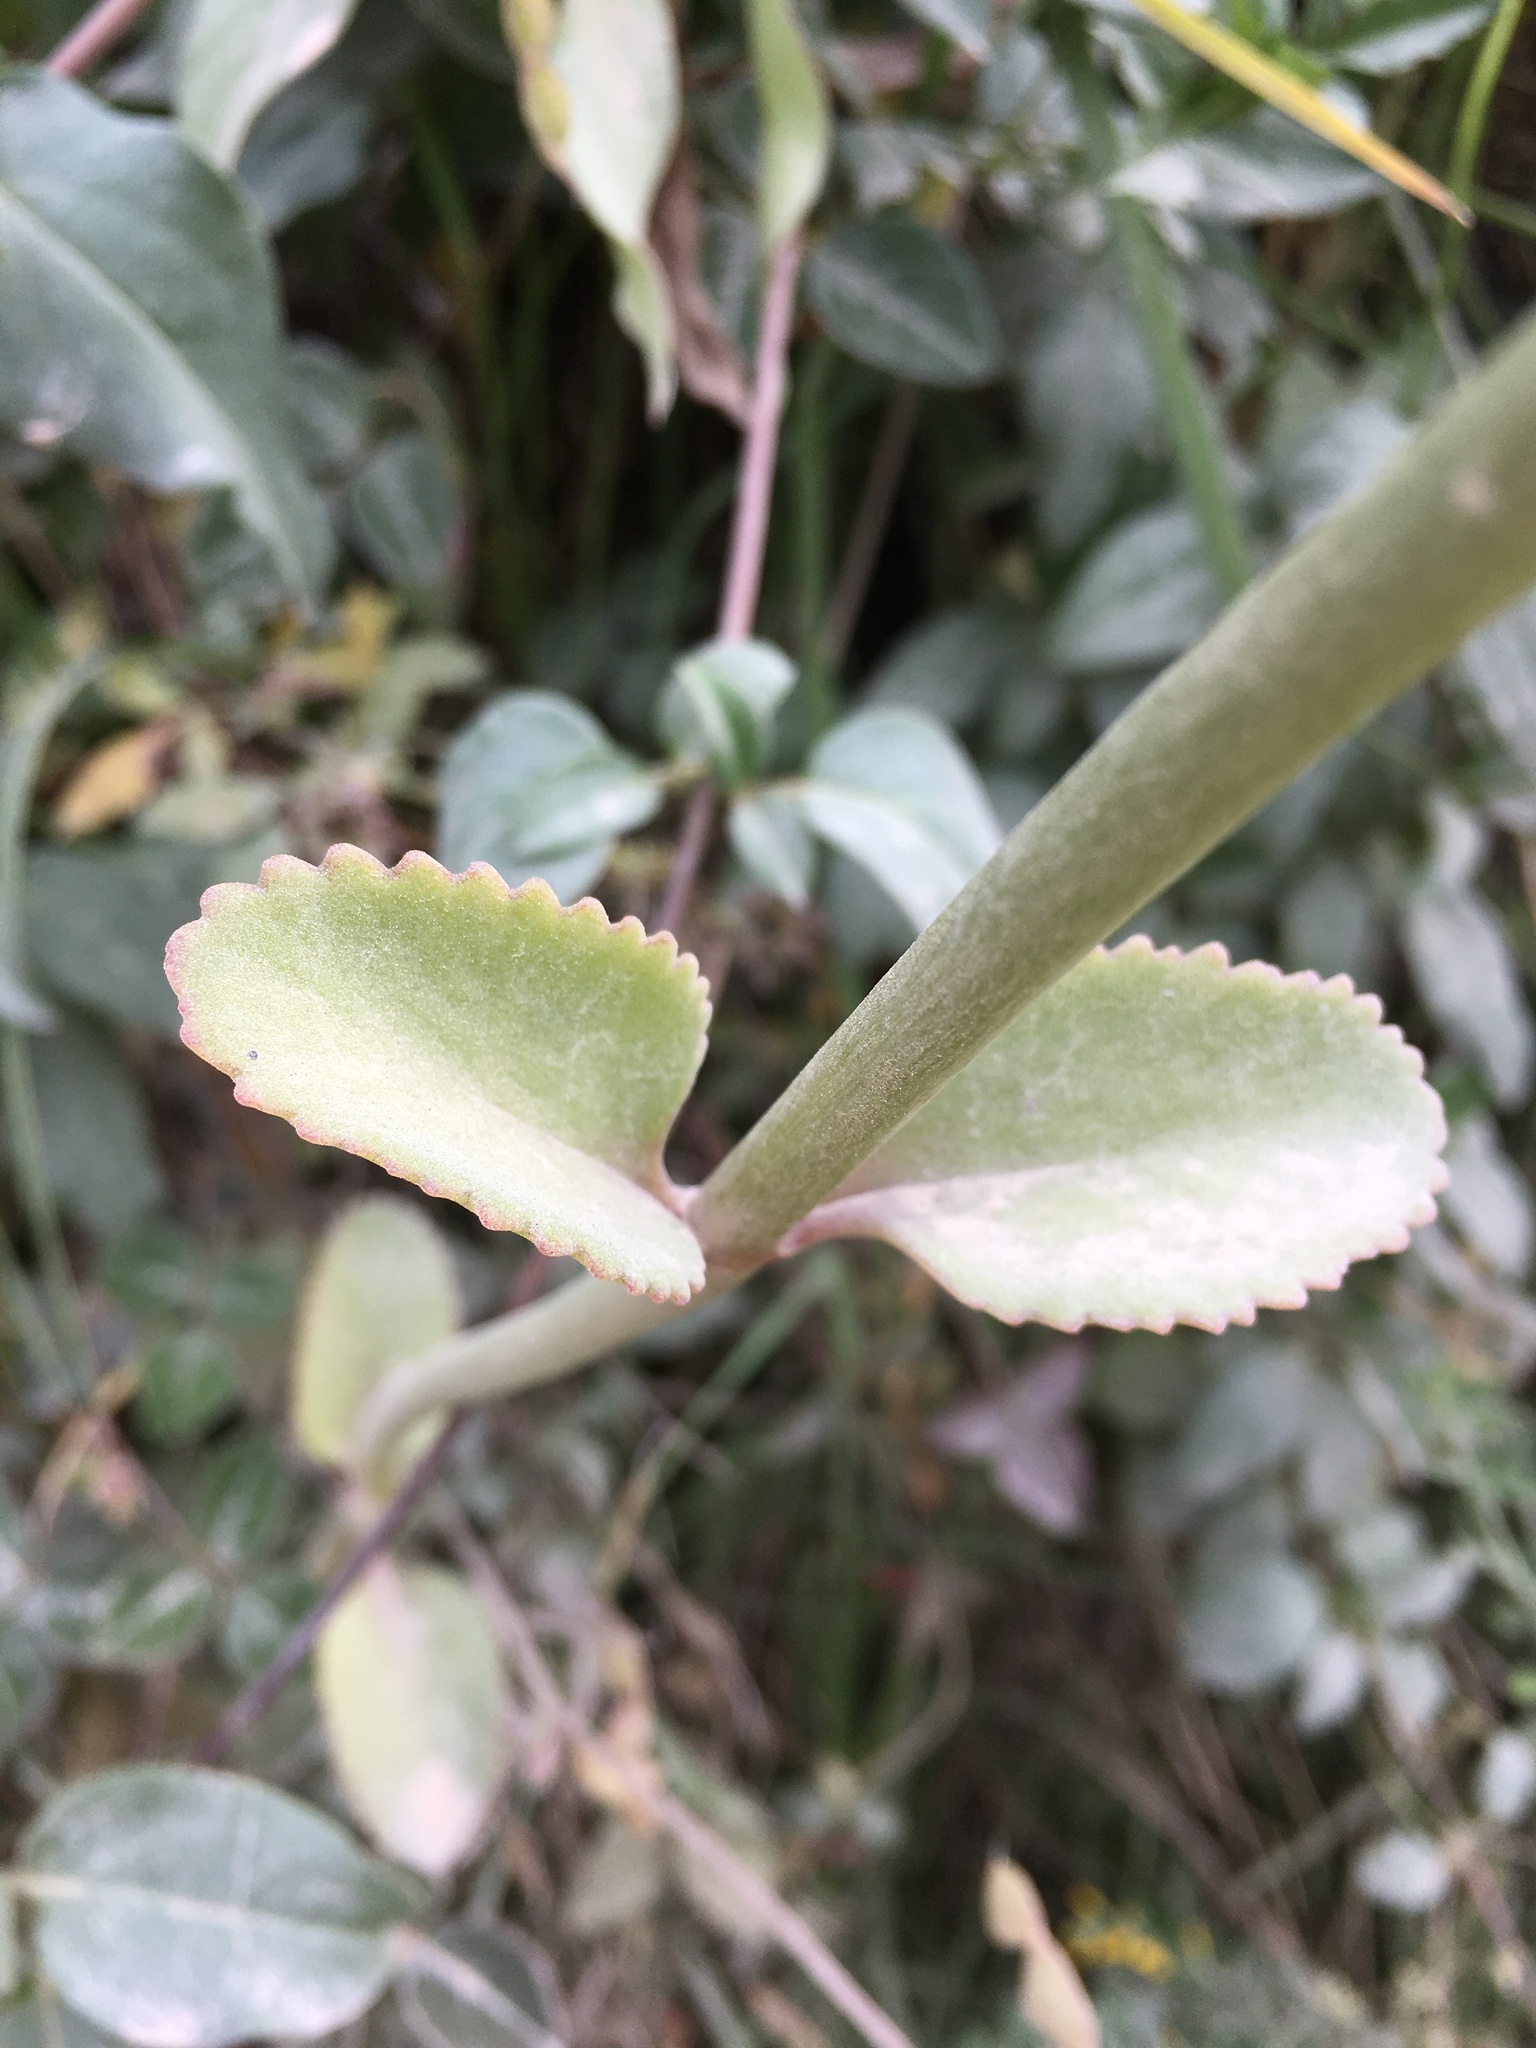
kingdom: Plantae
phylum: Tracheophyta
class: Magnoliopsida
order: Saxifragales
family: Crassulaceae
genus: Kalanchoe
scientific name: Kalanchoe densiflora
